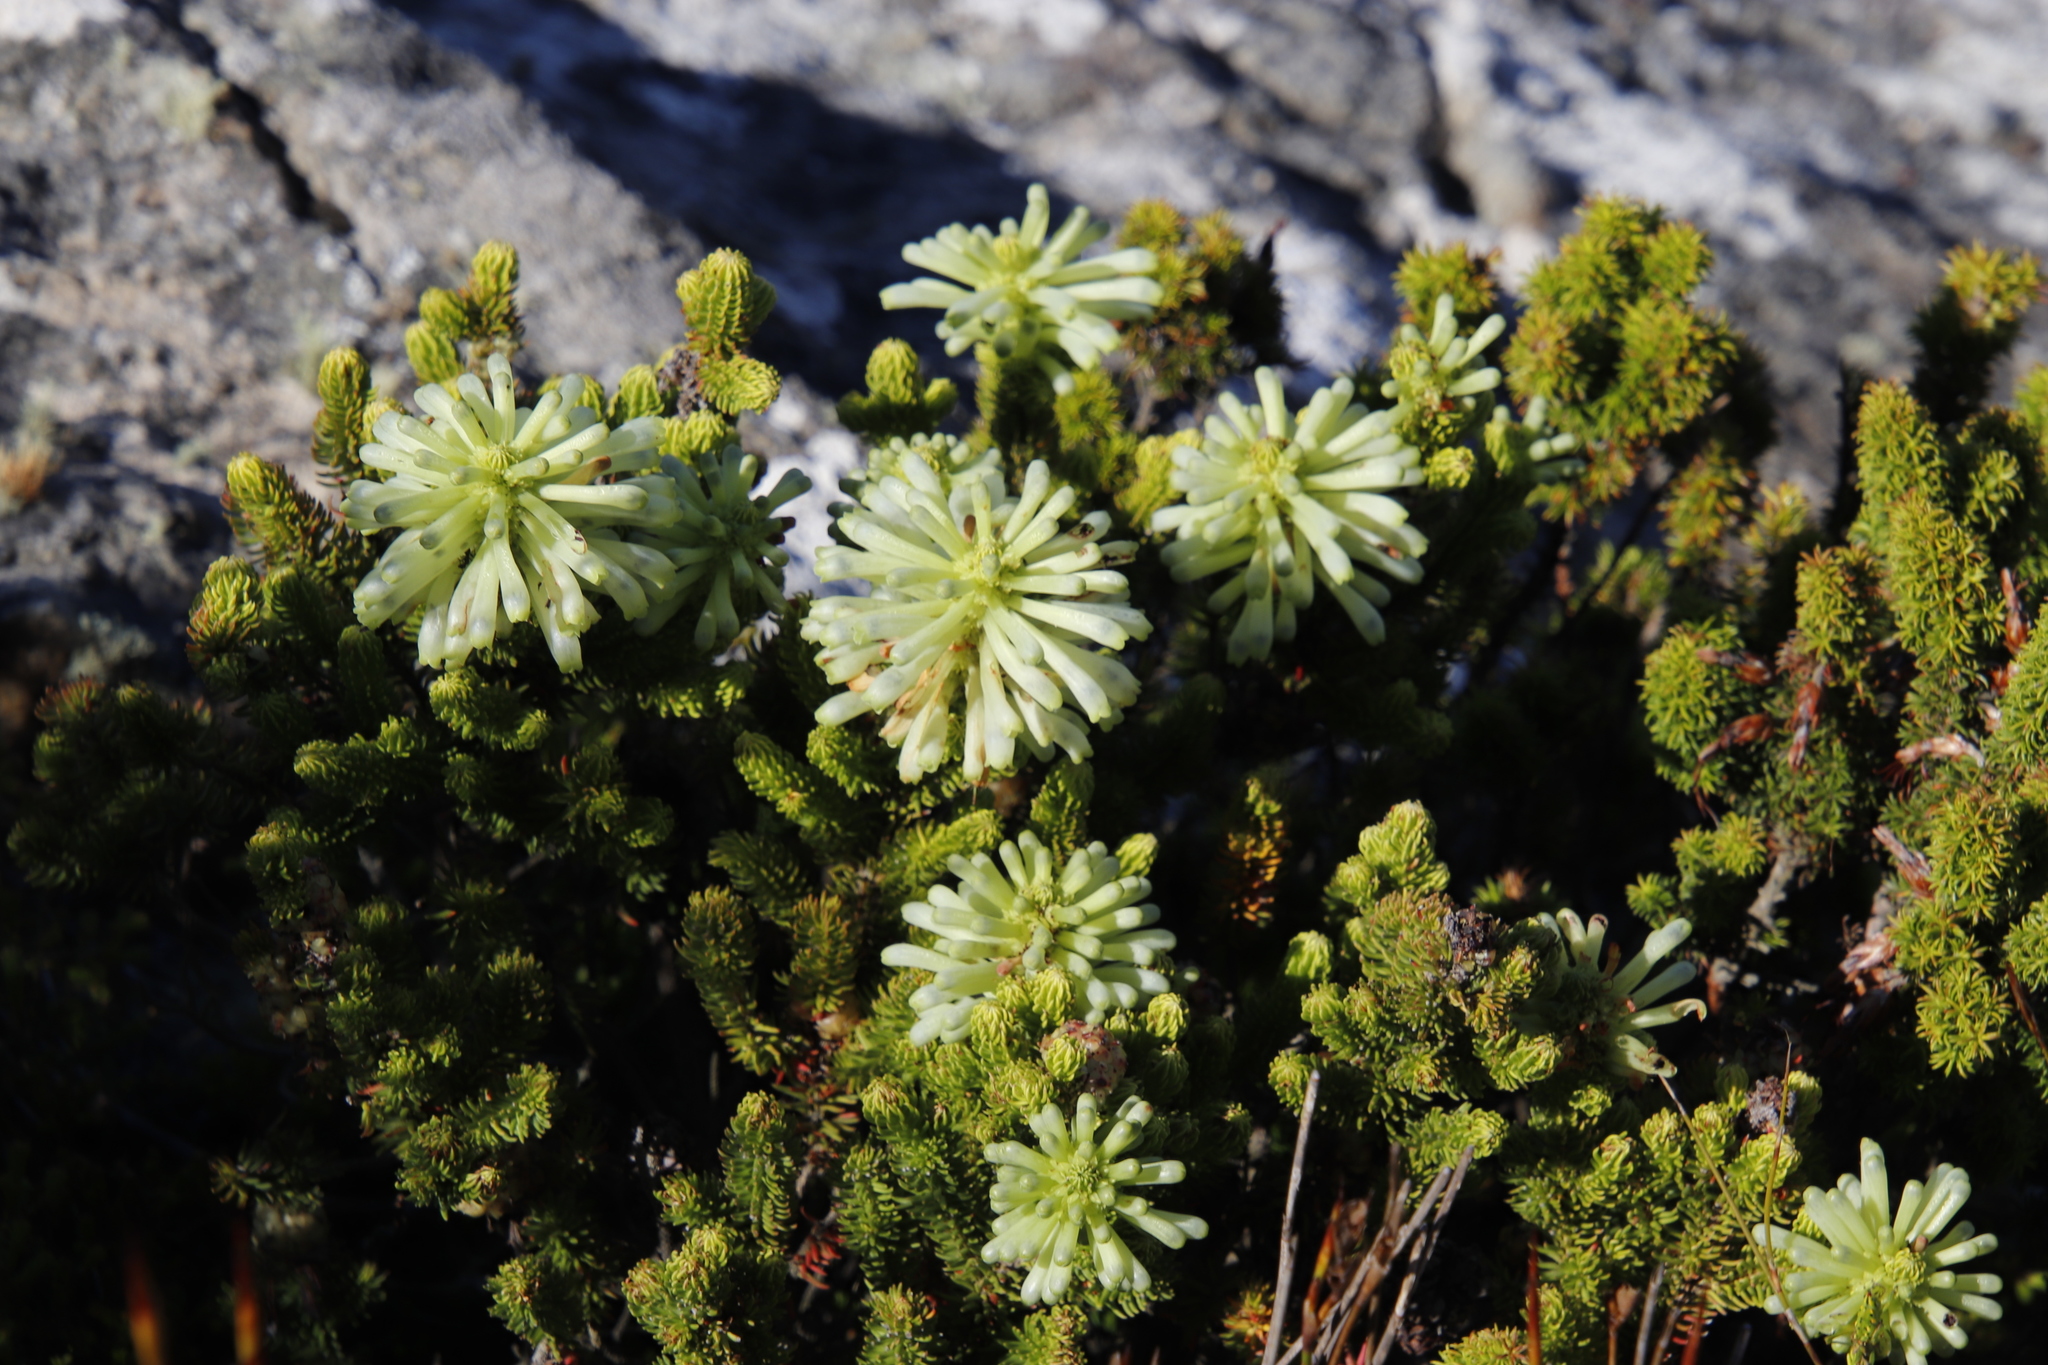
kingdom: Plantae
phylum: Tracheophyta
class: Magnoliopsida
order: Ericales
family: Ericaceae
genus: Erica
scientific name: Erica sessiliflora
